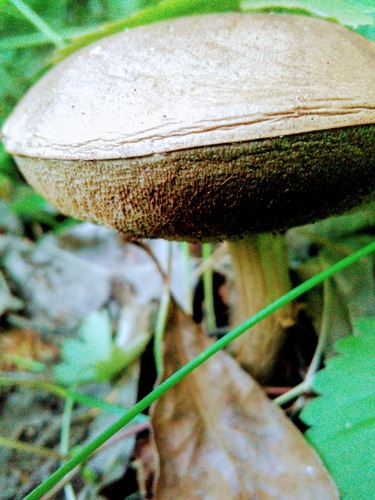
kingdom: Fungi
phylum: Basidiomycota
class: Agaricomycetes
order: Boletales
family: Boletaceae
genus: Leccinum
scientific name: Leccinum
